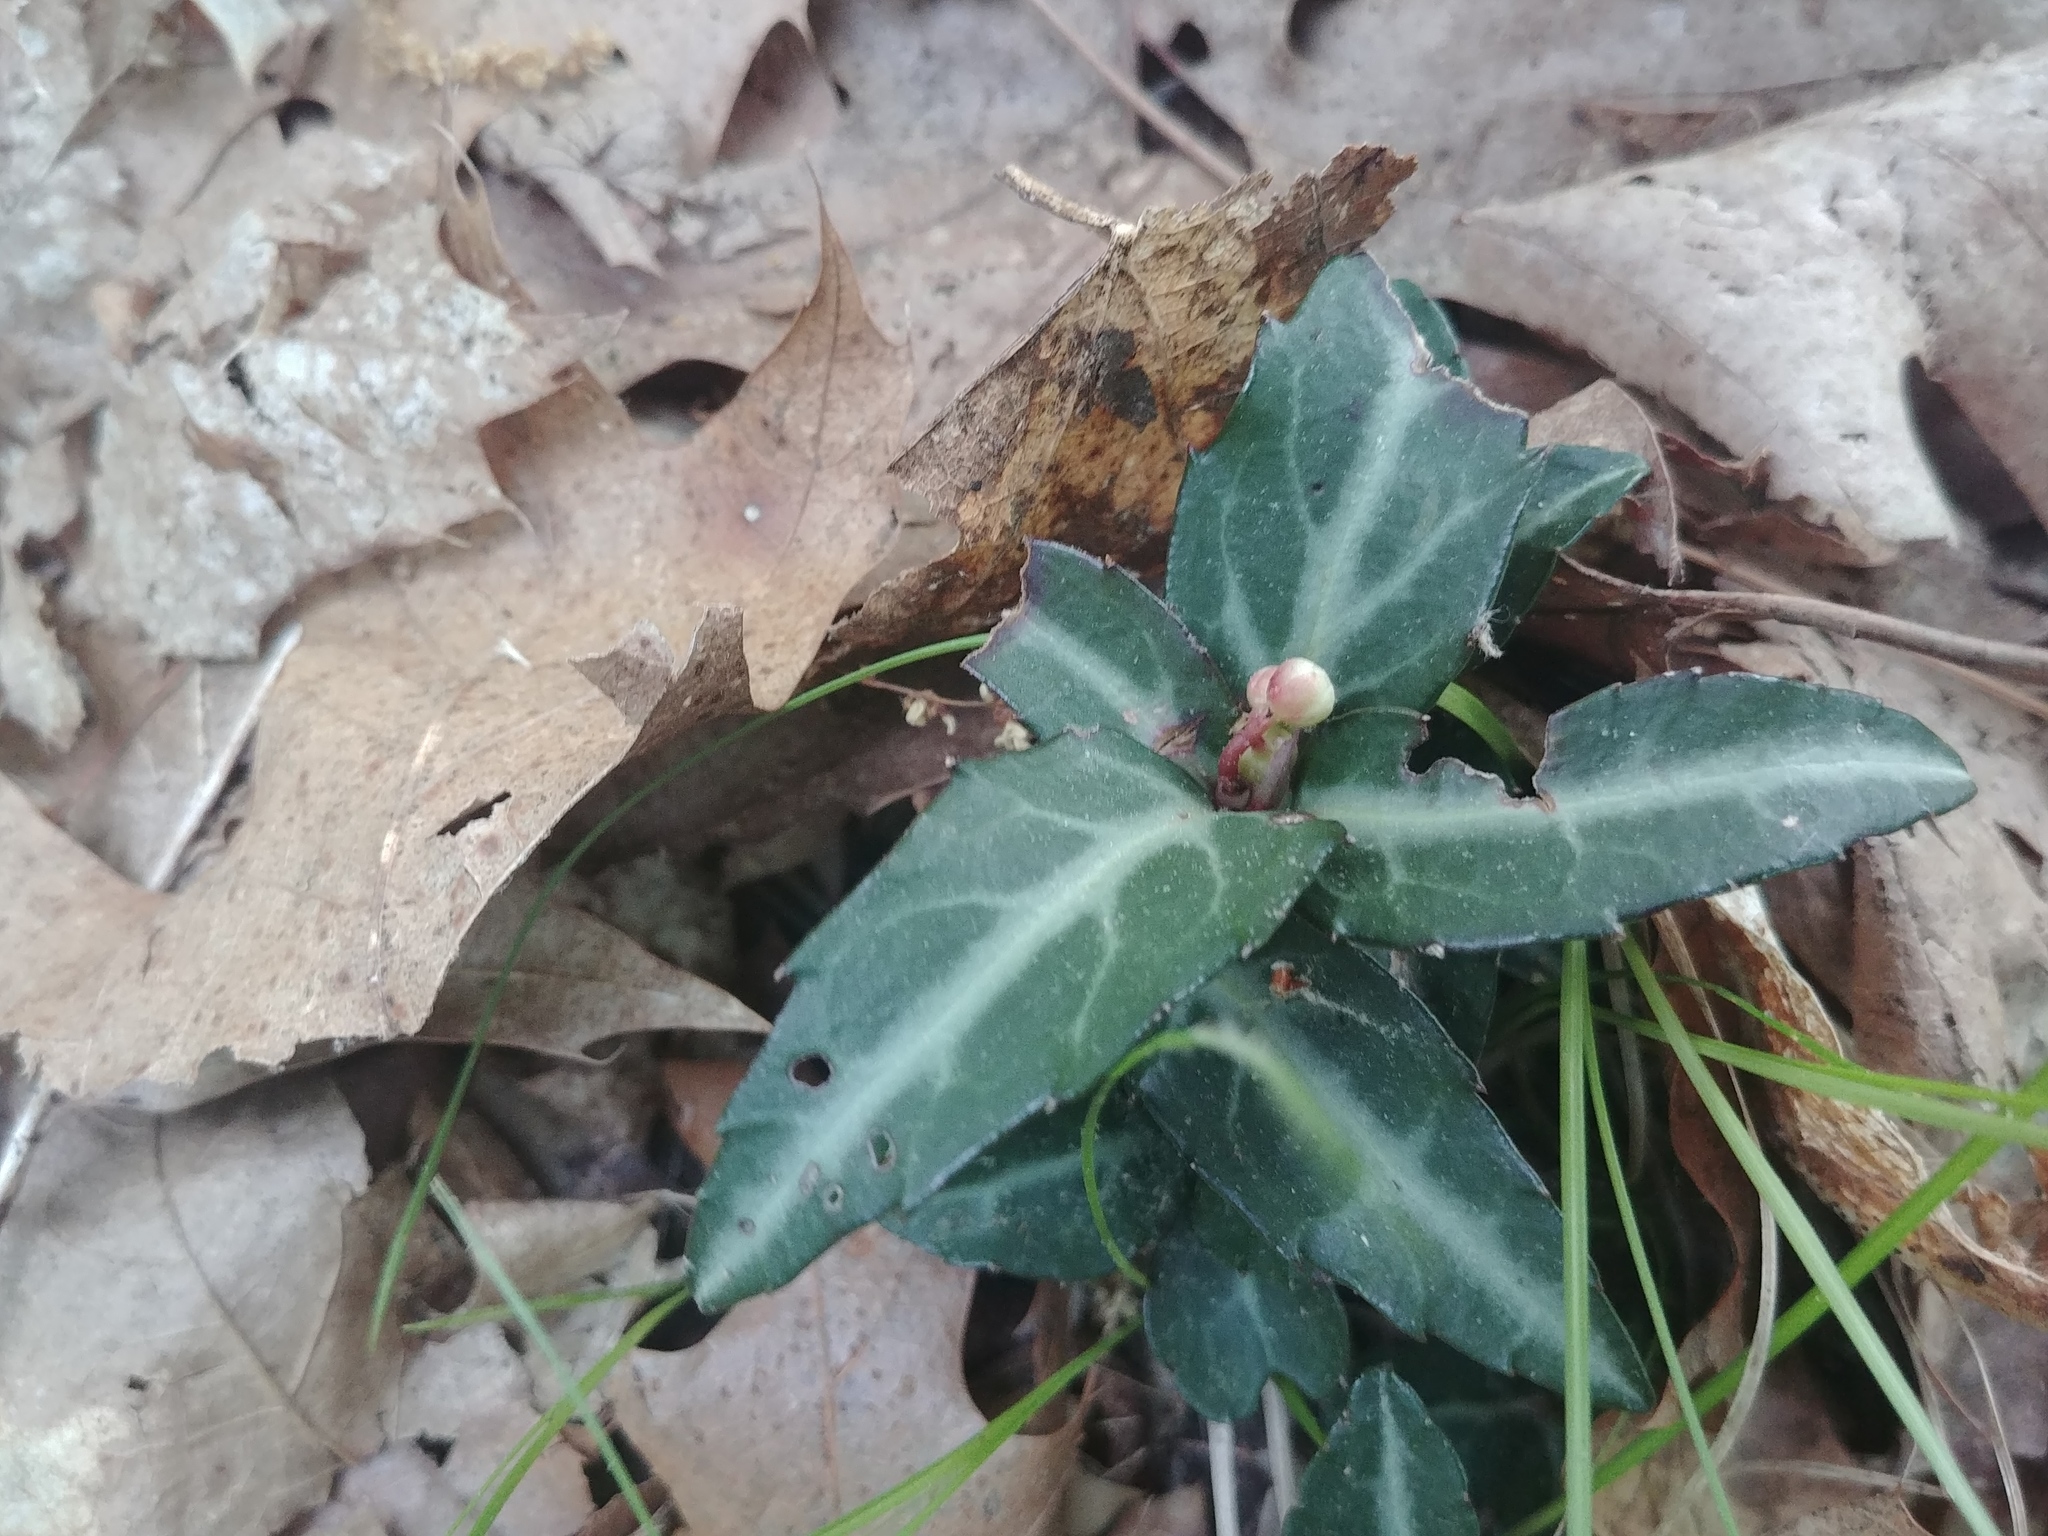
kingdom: Plantae
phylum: Tracheophyta
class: Magnoliopsida
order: Ericales
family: Ericaceae
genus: Chimaphila
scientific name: Chimaphila maculata
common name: Spotted pipsissewa
